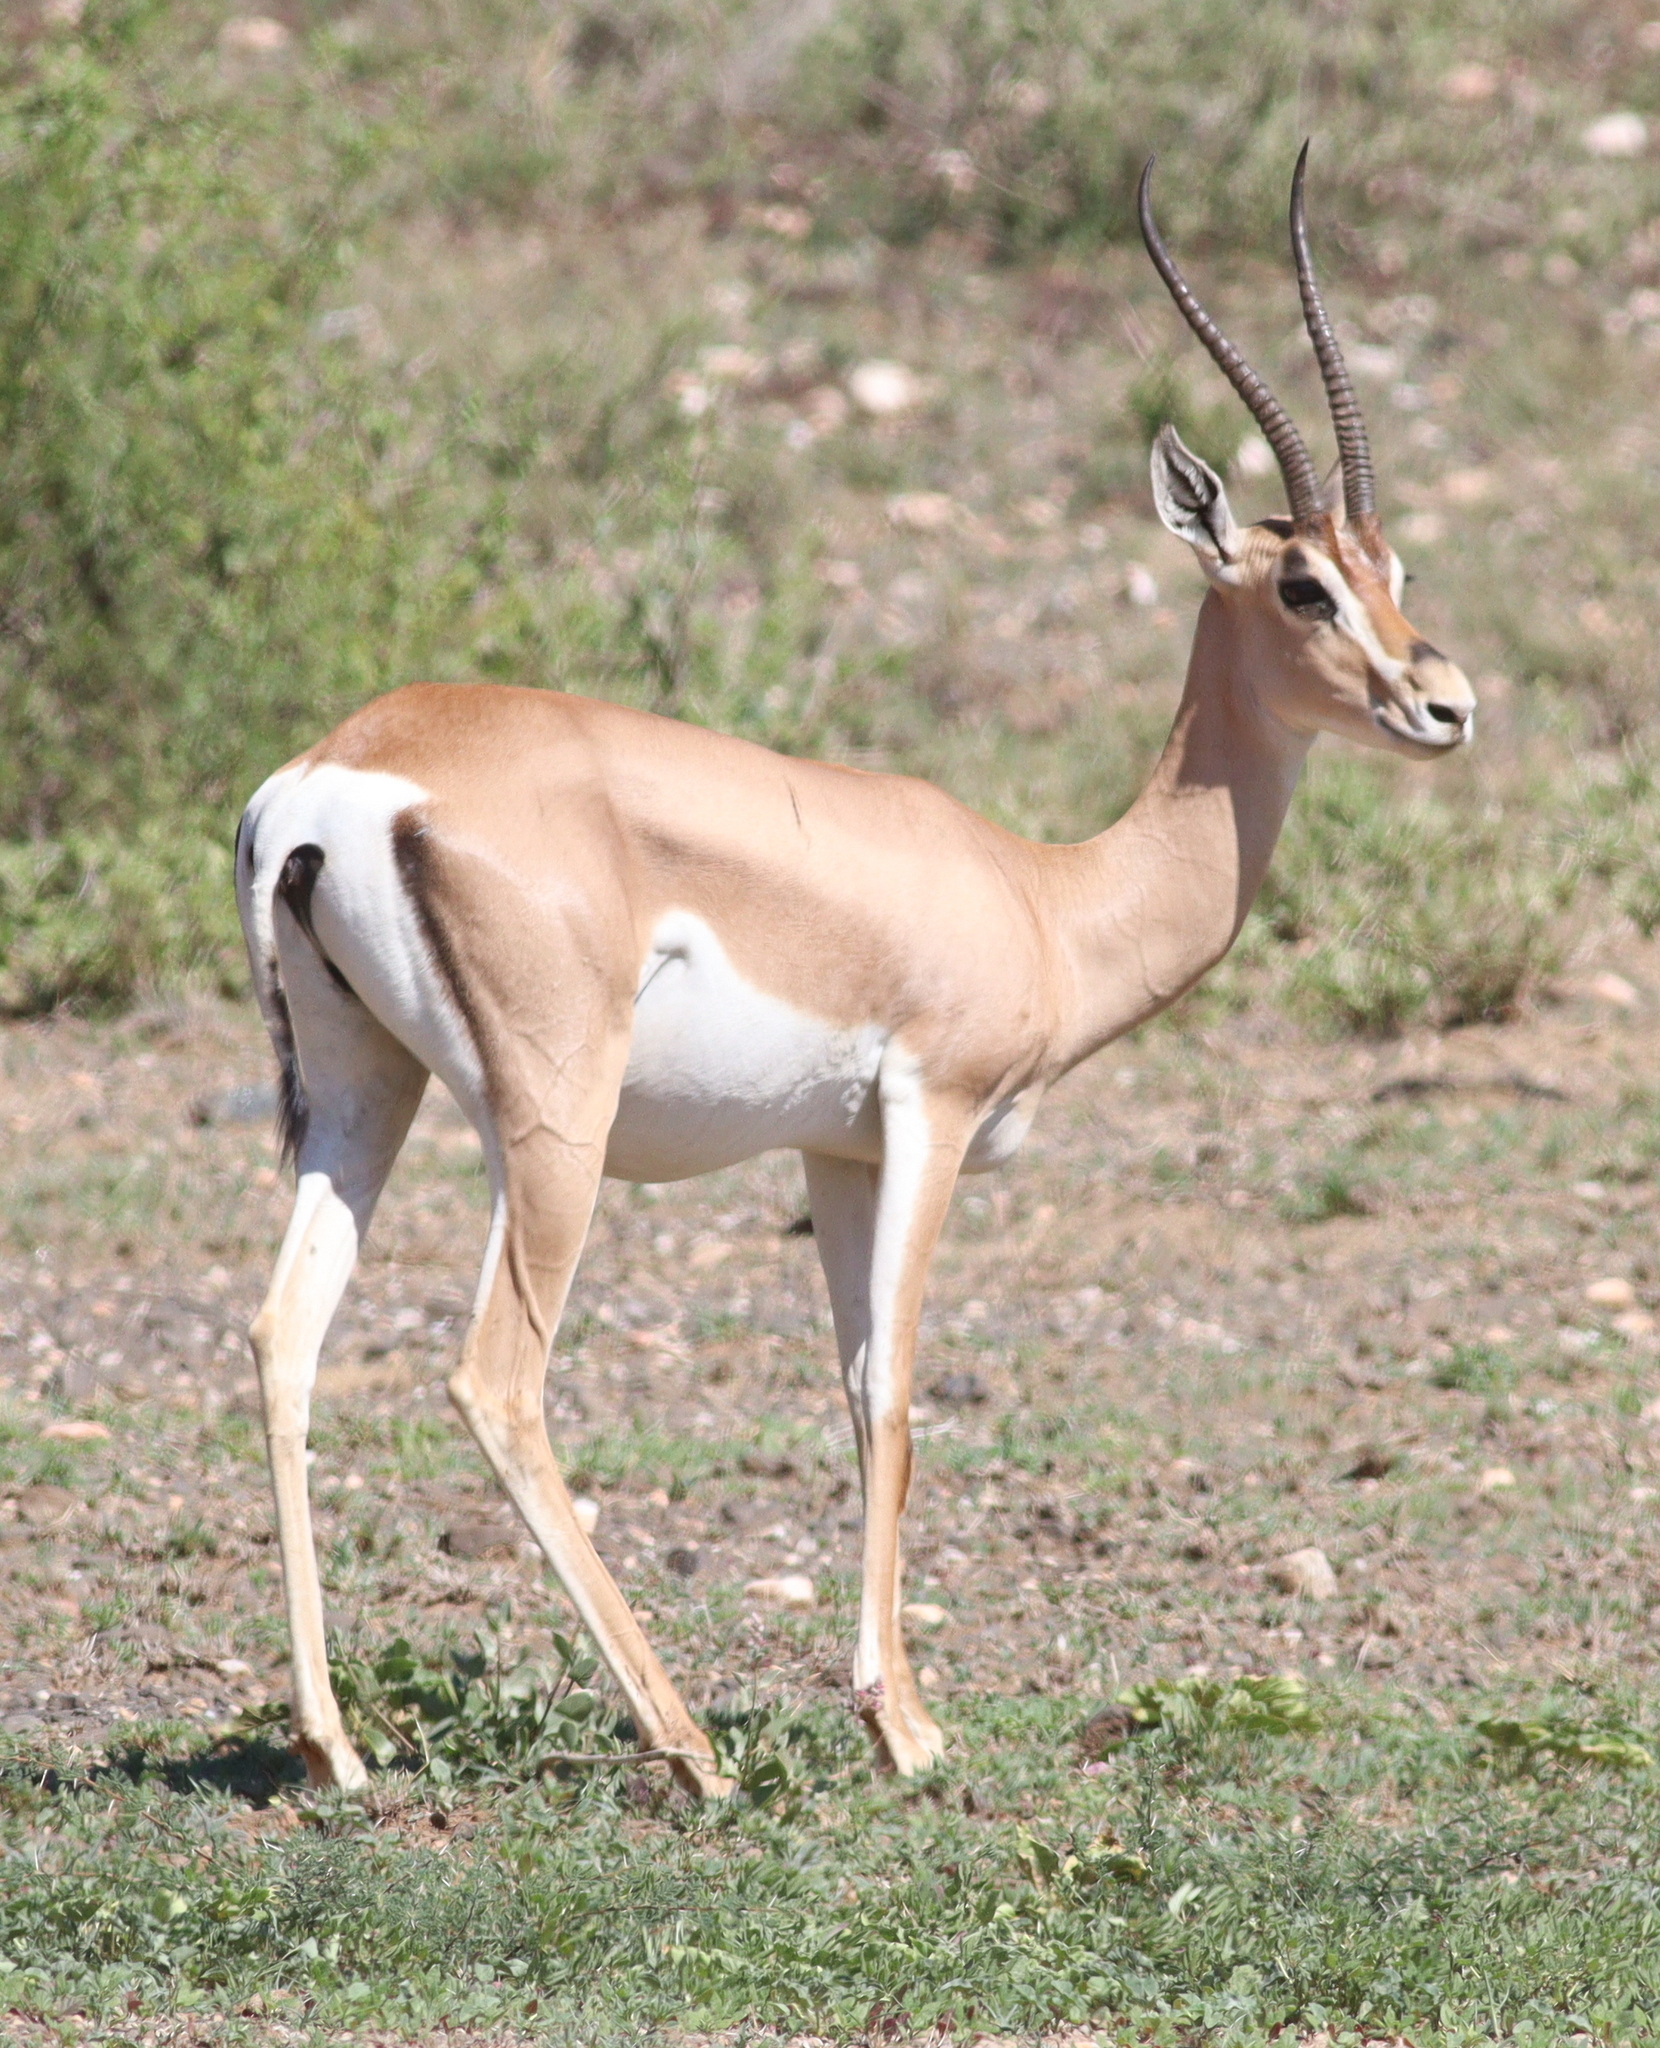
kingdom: Animalia
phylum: Chordata
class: Mammalia
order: Artiodactyla
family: Bovidae
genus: Nanger
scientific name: Nanger granti
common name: Grant's gazelle
